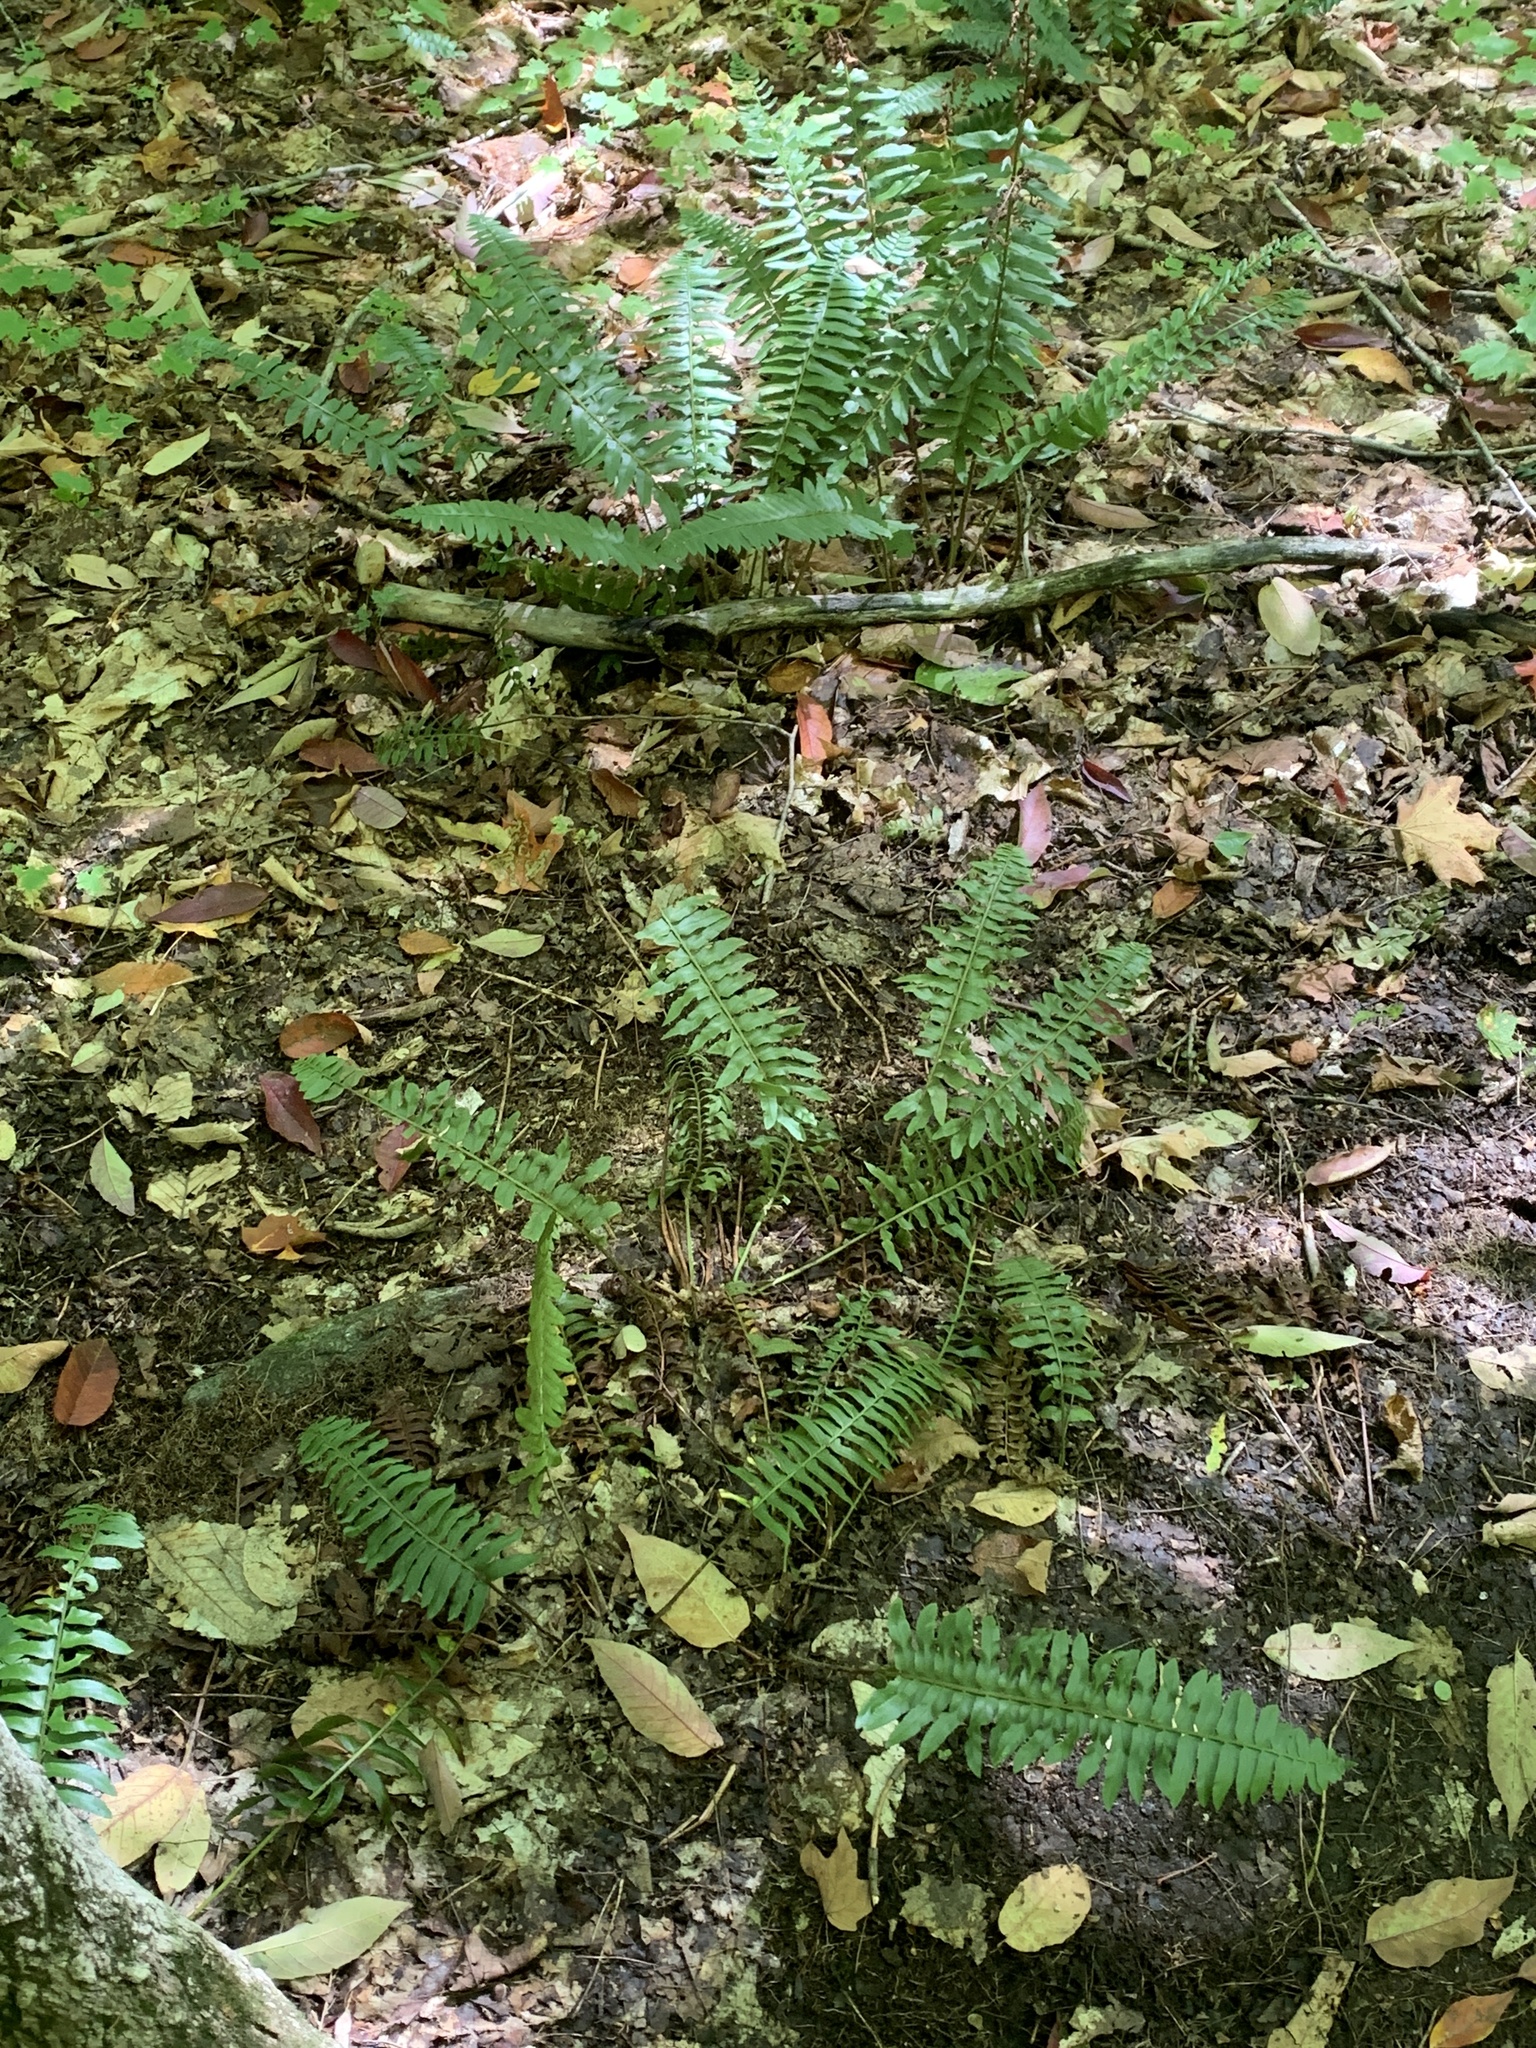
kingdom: Plantae
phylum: Tracheophyta
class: Polypodiopsida
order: Polypodiales
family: Dryopteridaceae
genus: Polystichum
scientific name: Polystichum acrostichoides
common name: Christmas fern
